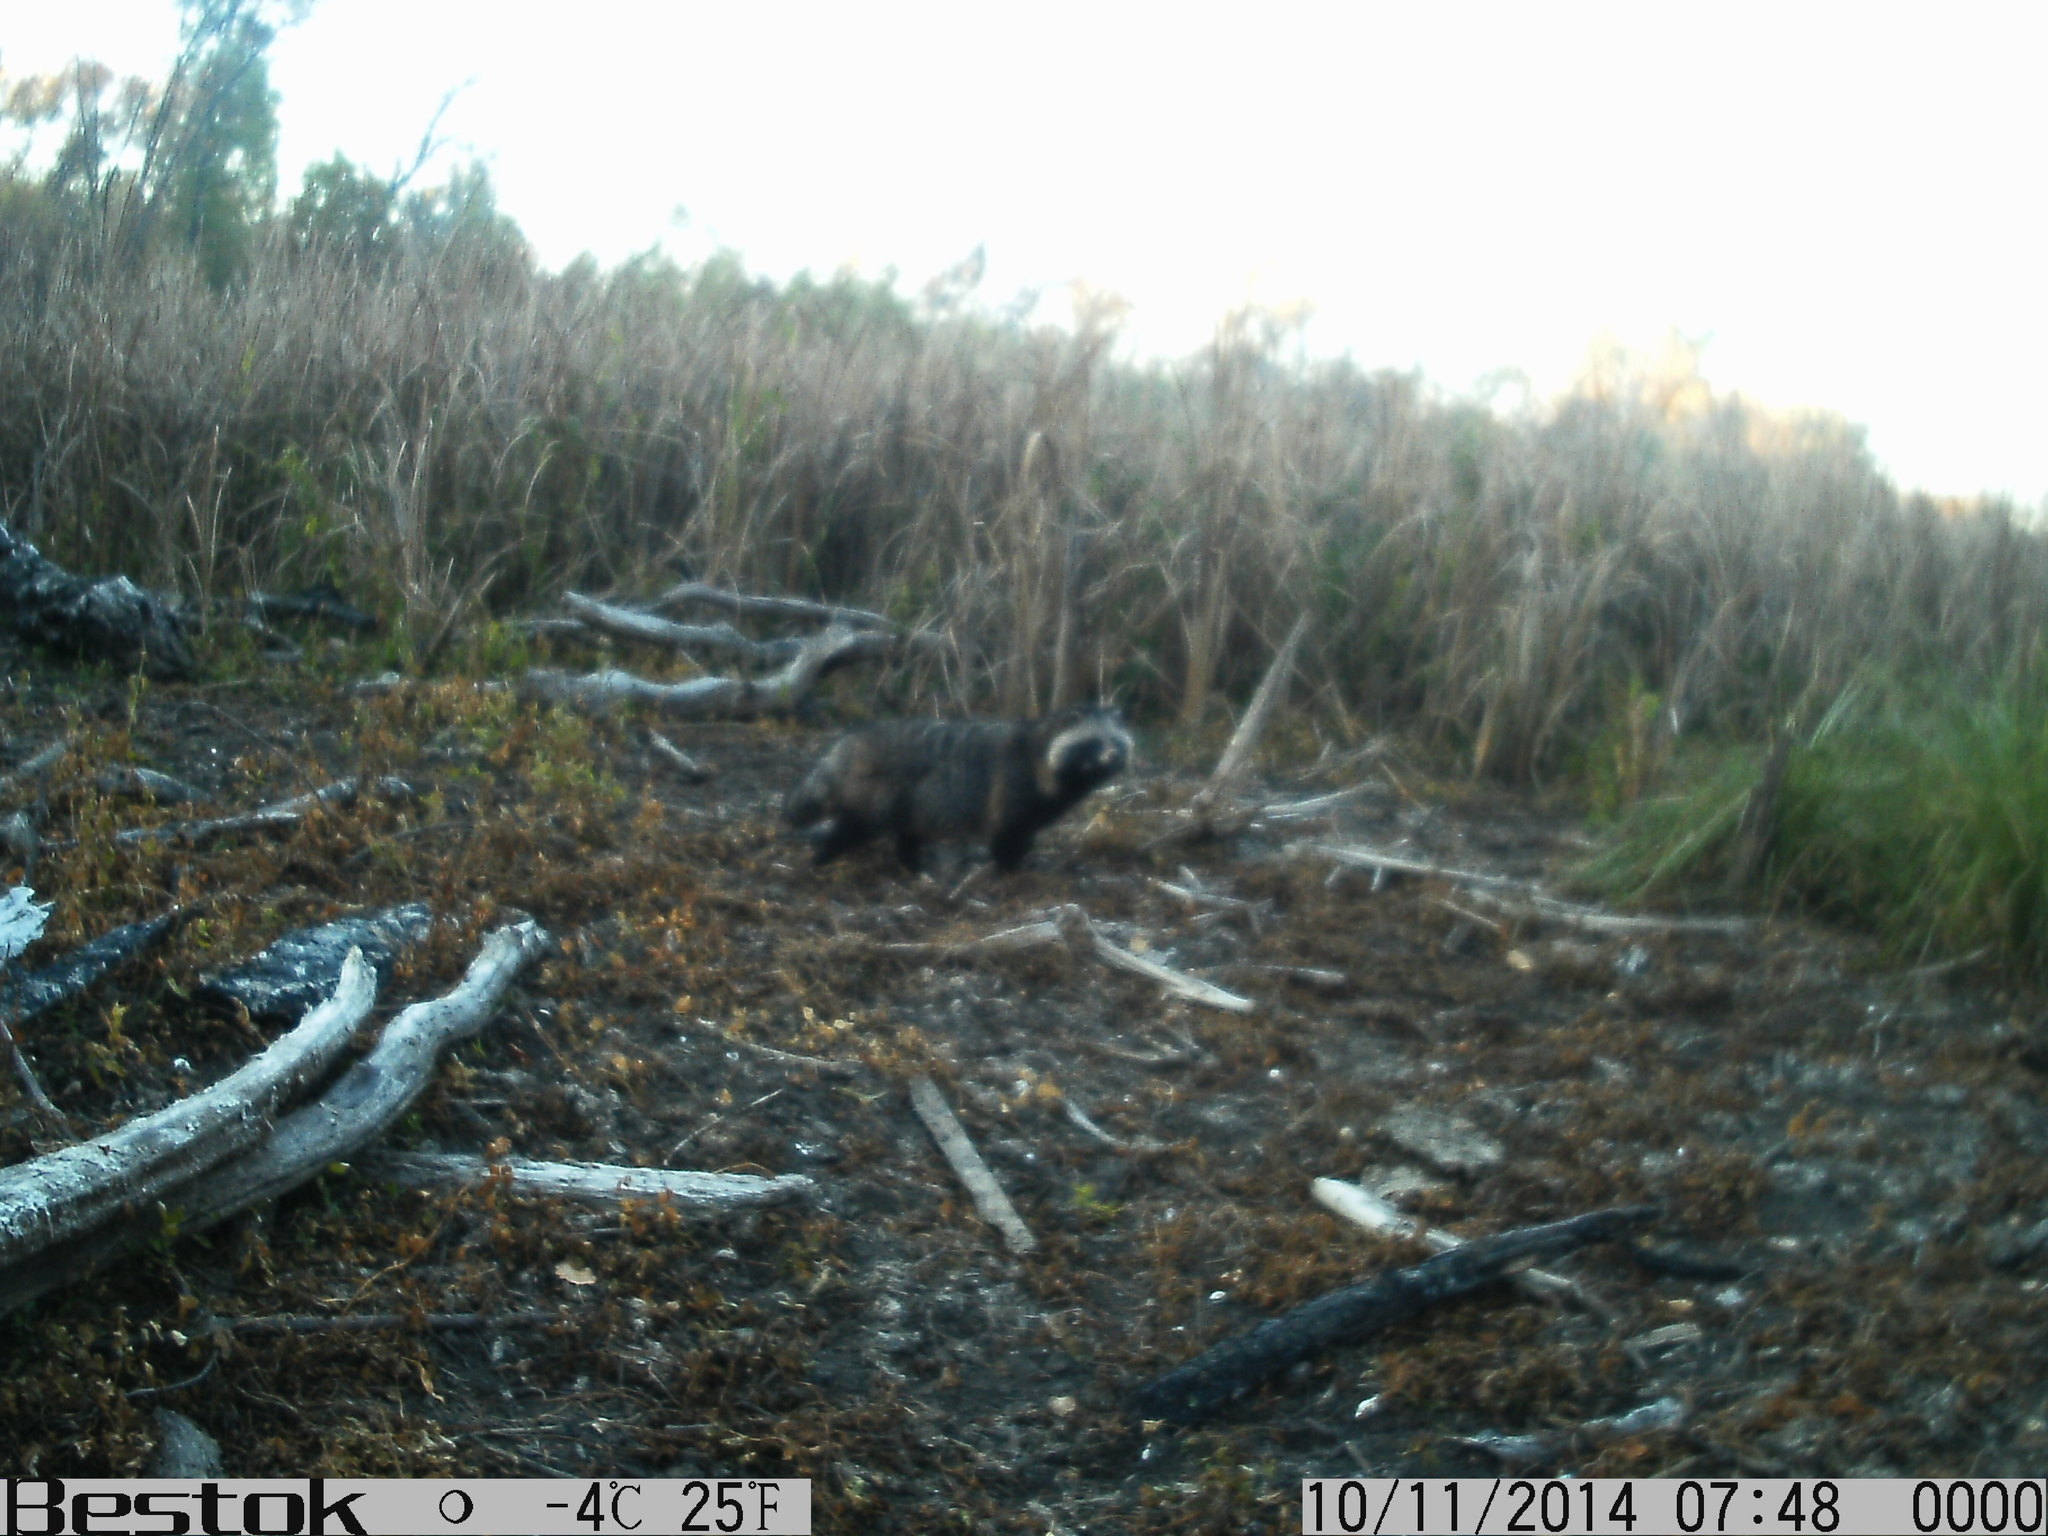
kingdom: Animalia
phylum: Chordata
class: Mammalia
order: Carnivora
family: Canidae
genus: Nyctereutes
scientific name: Nyctereutes procyonoides
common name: Raccoon dog
